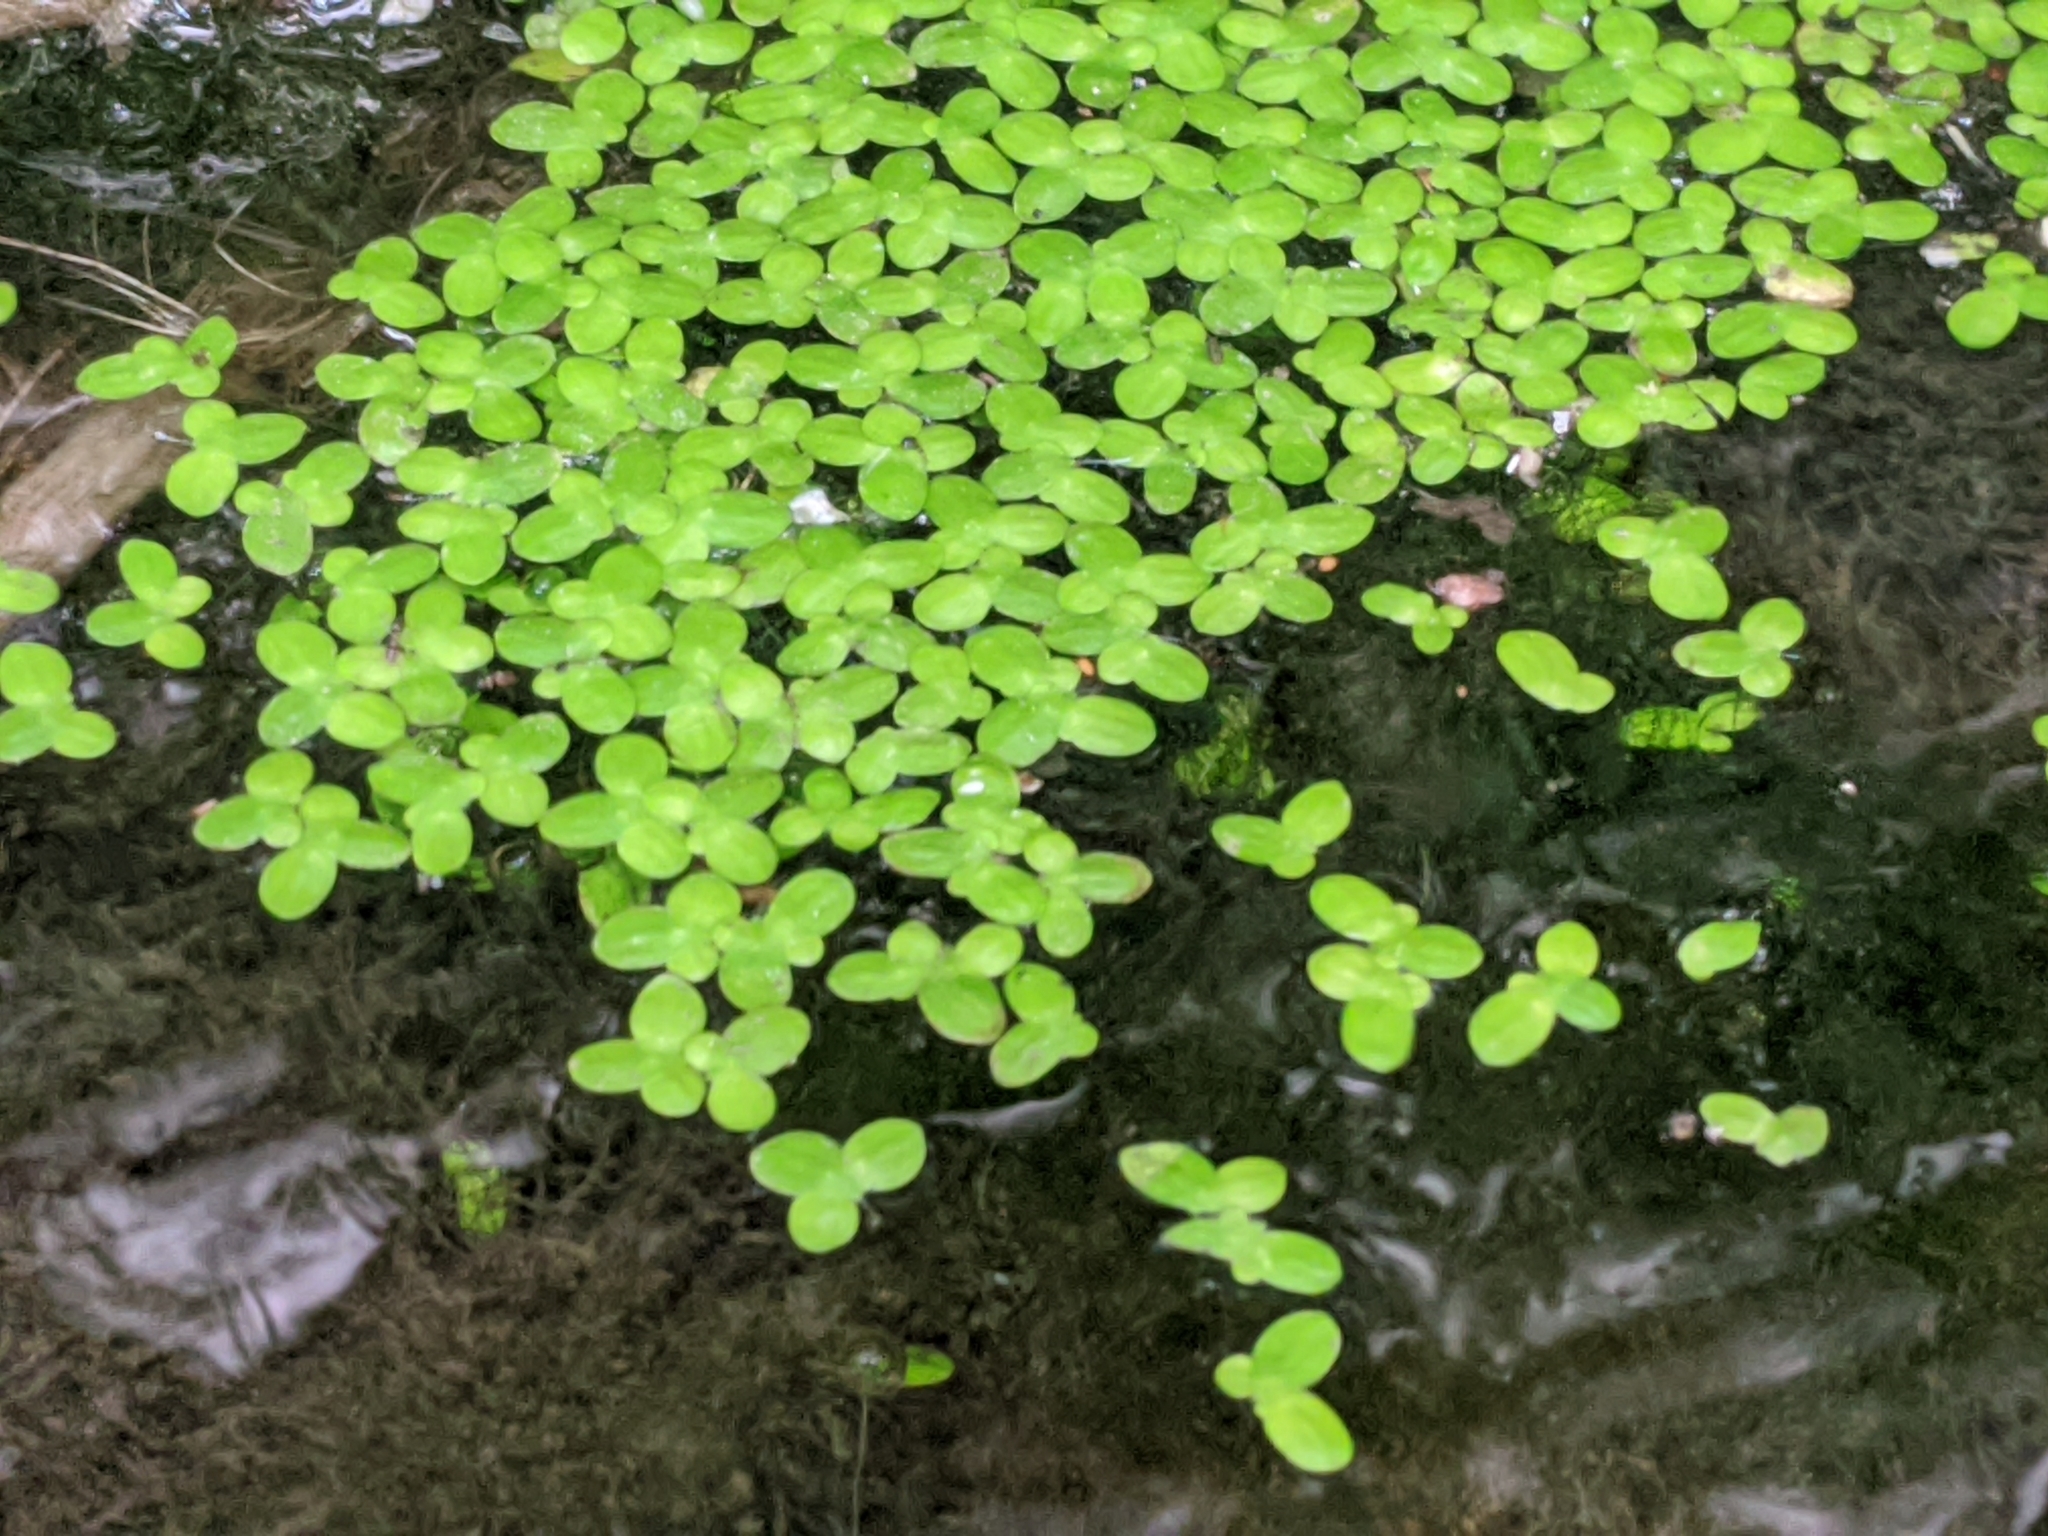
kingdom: Plantae
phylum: Tracheophyta
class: Liliopsida
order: Alismatales
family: Araceae
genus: Lemna
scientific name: Lemna minor
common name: Common duckweed
